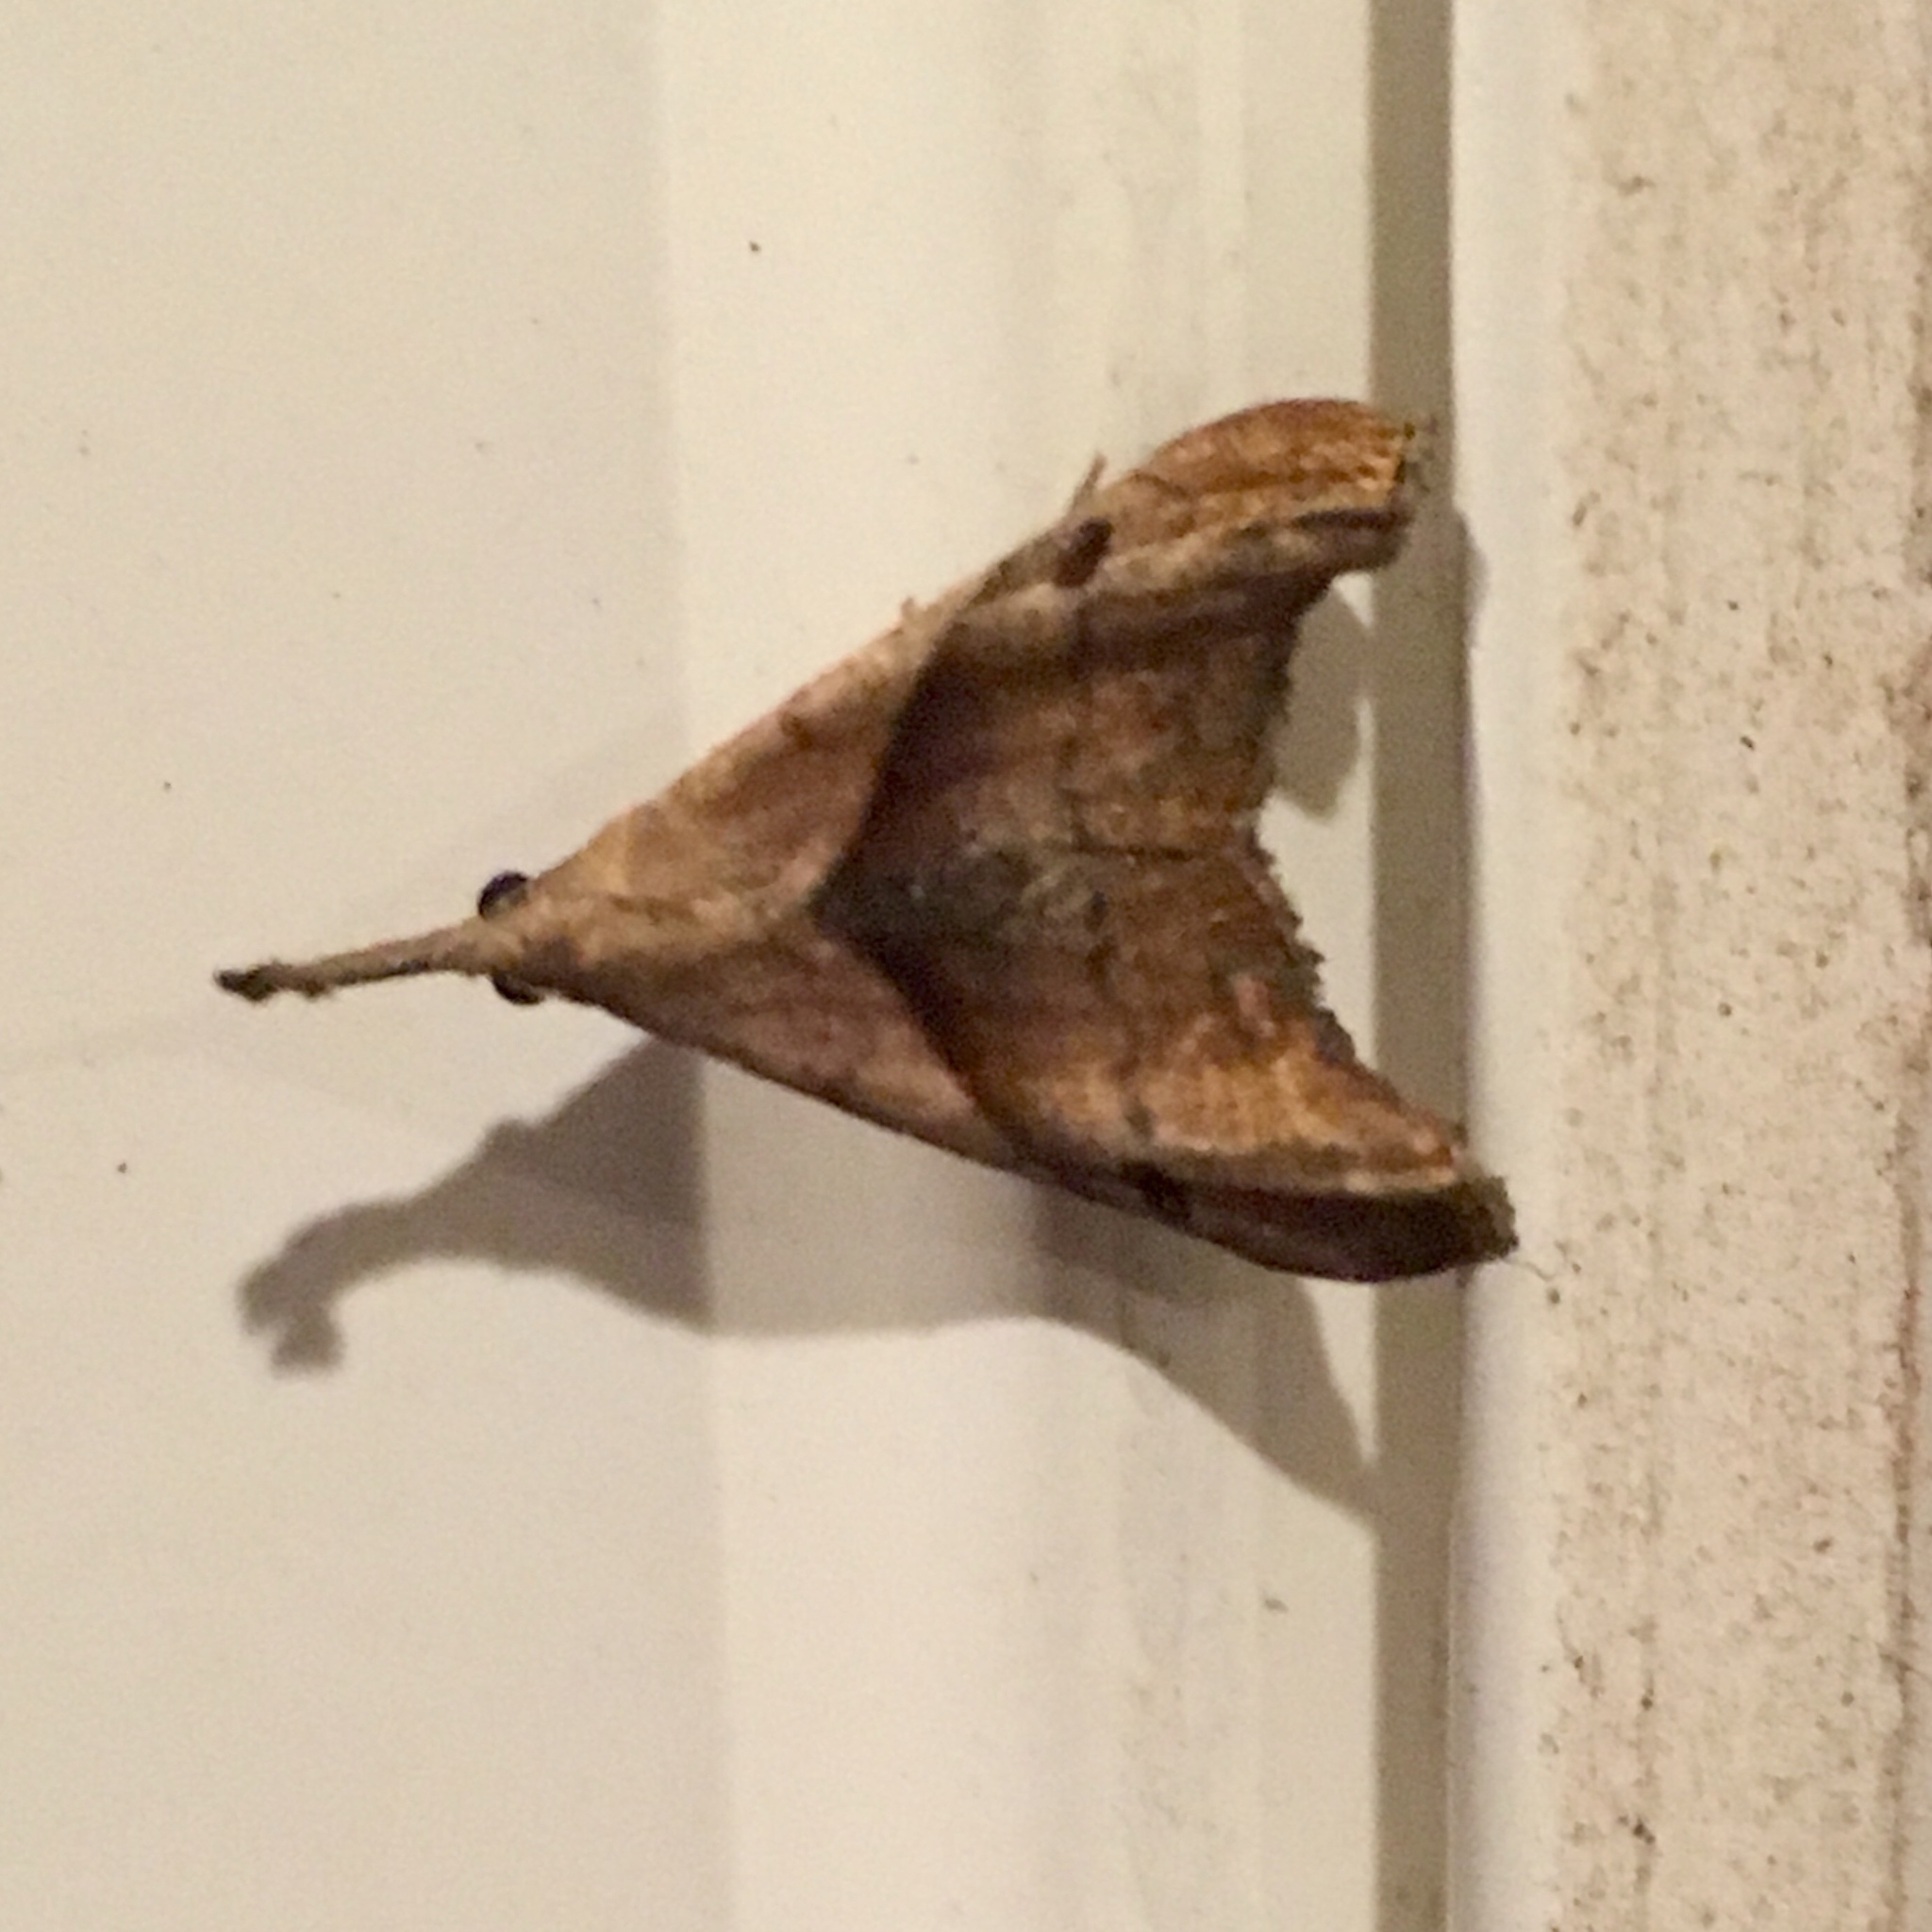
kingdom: Animalia
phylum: Arthropoda
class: Insecta
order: Lepidoptera
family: Erebidae
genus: Palthis
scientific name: Palthis angulalis
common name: Dark-spotted palthis moth
